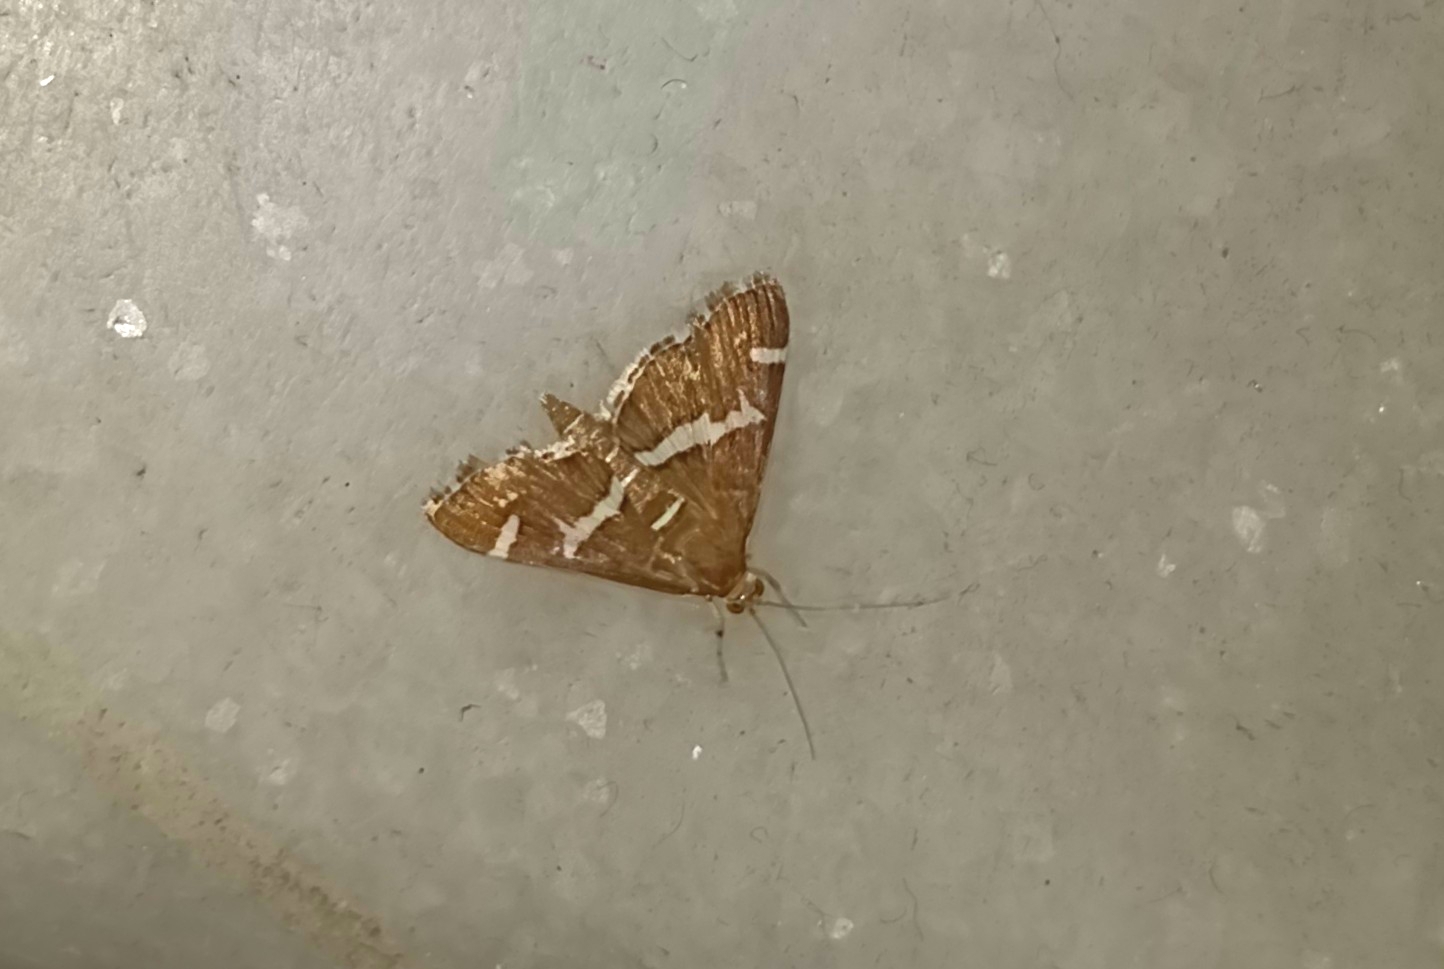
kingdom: Animalia
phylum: Arthropoda
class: Insecta
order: Lepidoptera
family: Crambidae
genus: Spoladea
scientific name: Spoladea recurvalis
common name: Beet webworm moth
